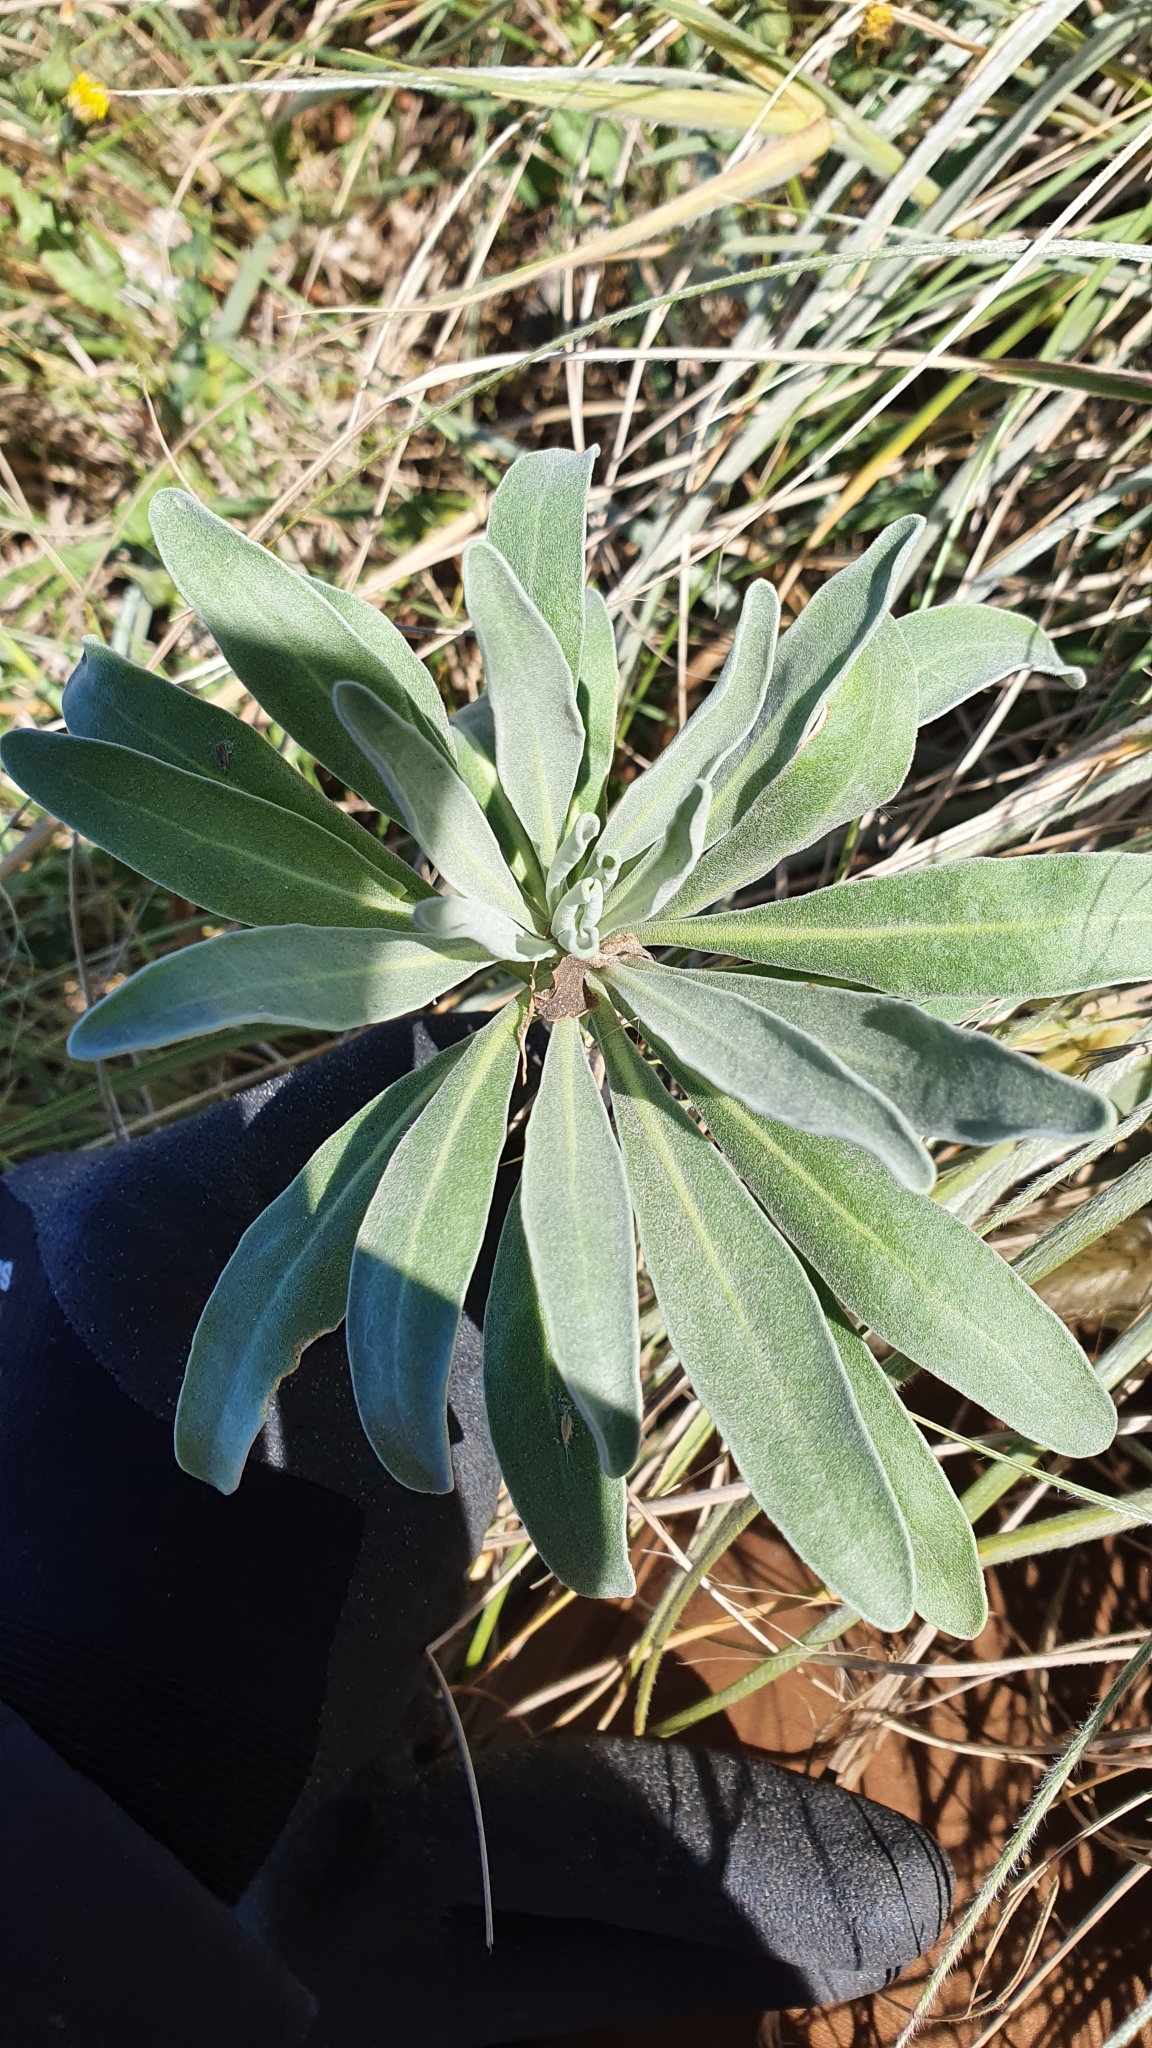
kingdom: Plantae
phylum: Tracheophyta
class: Magnoliopsida
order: Brassicales
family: Brassicaceae
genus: Matthiola
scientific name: Matthiola incana
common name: Hoary stock
